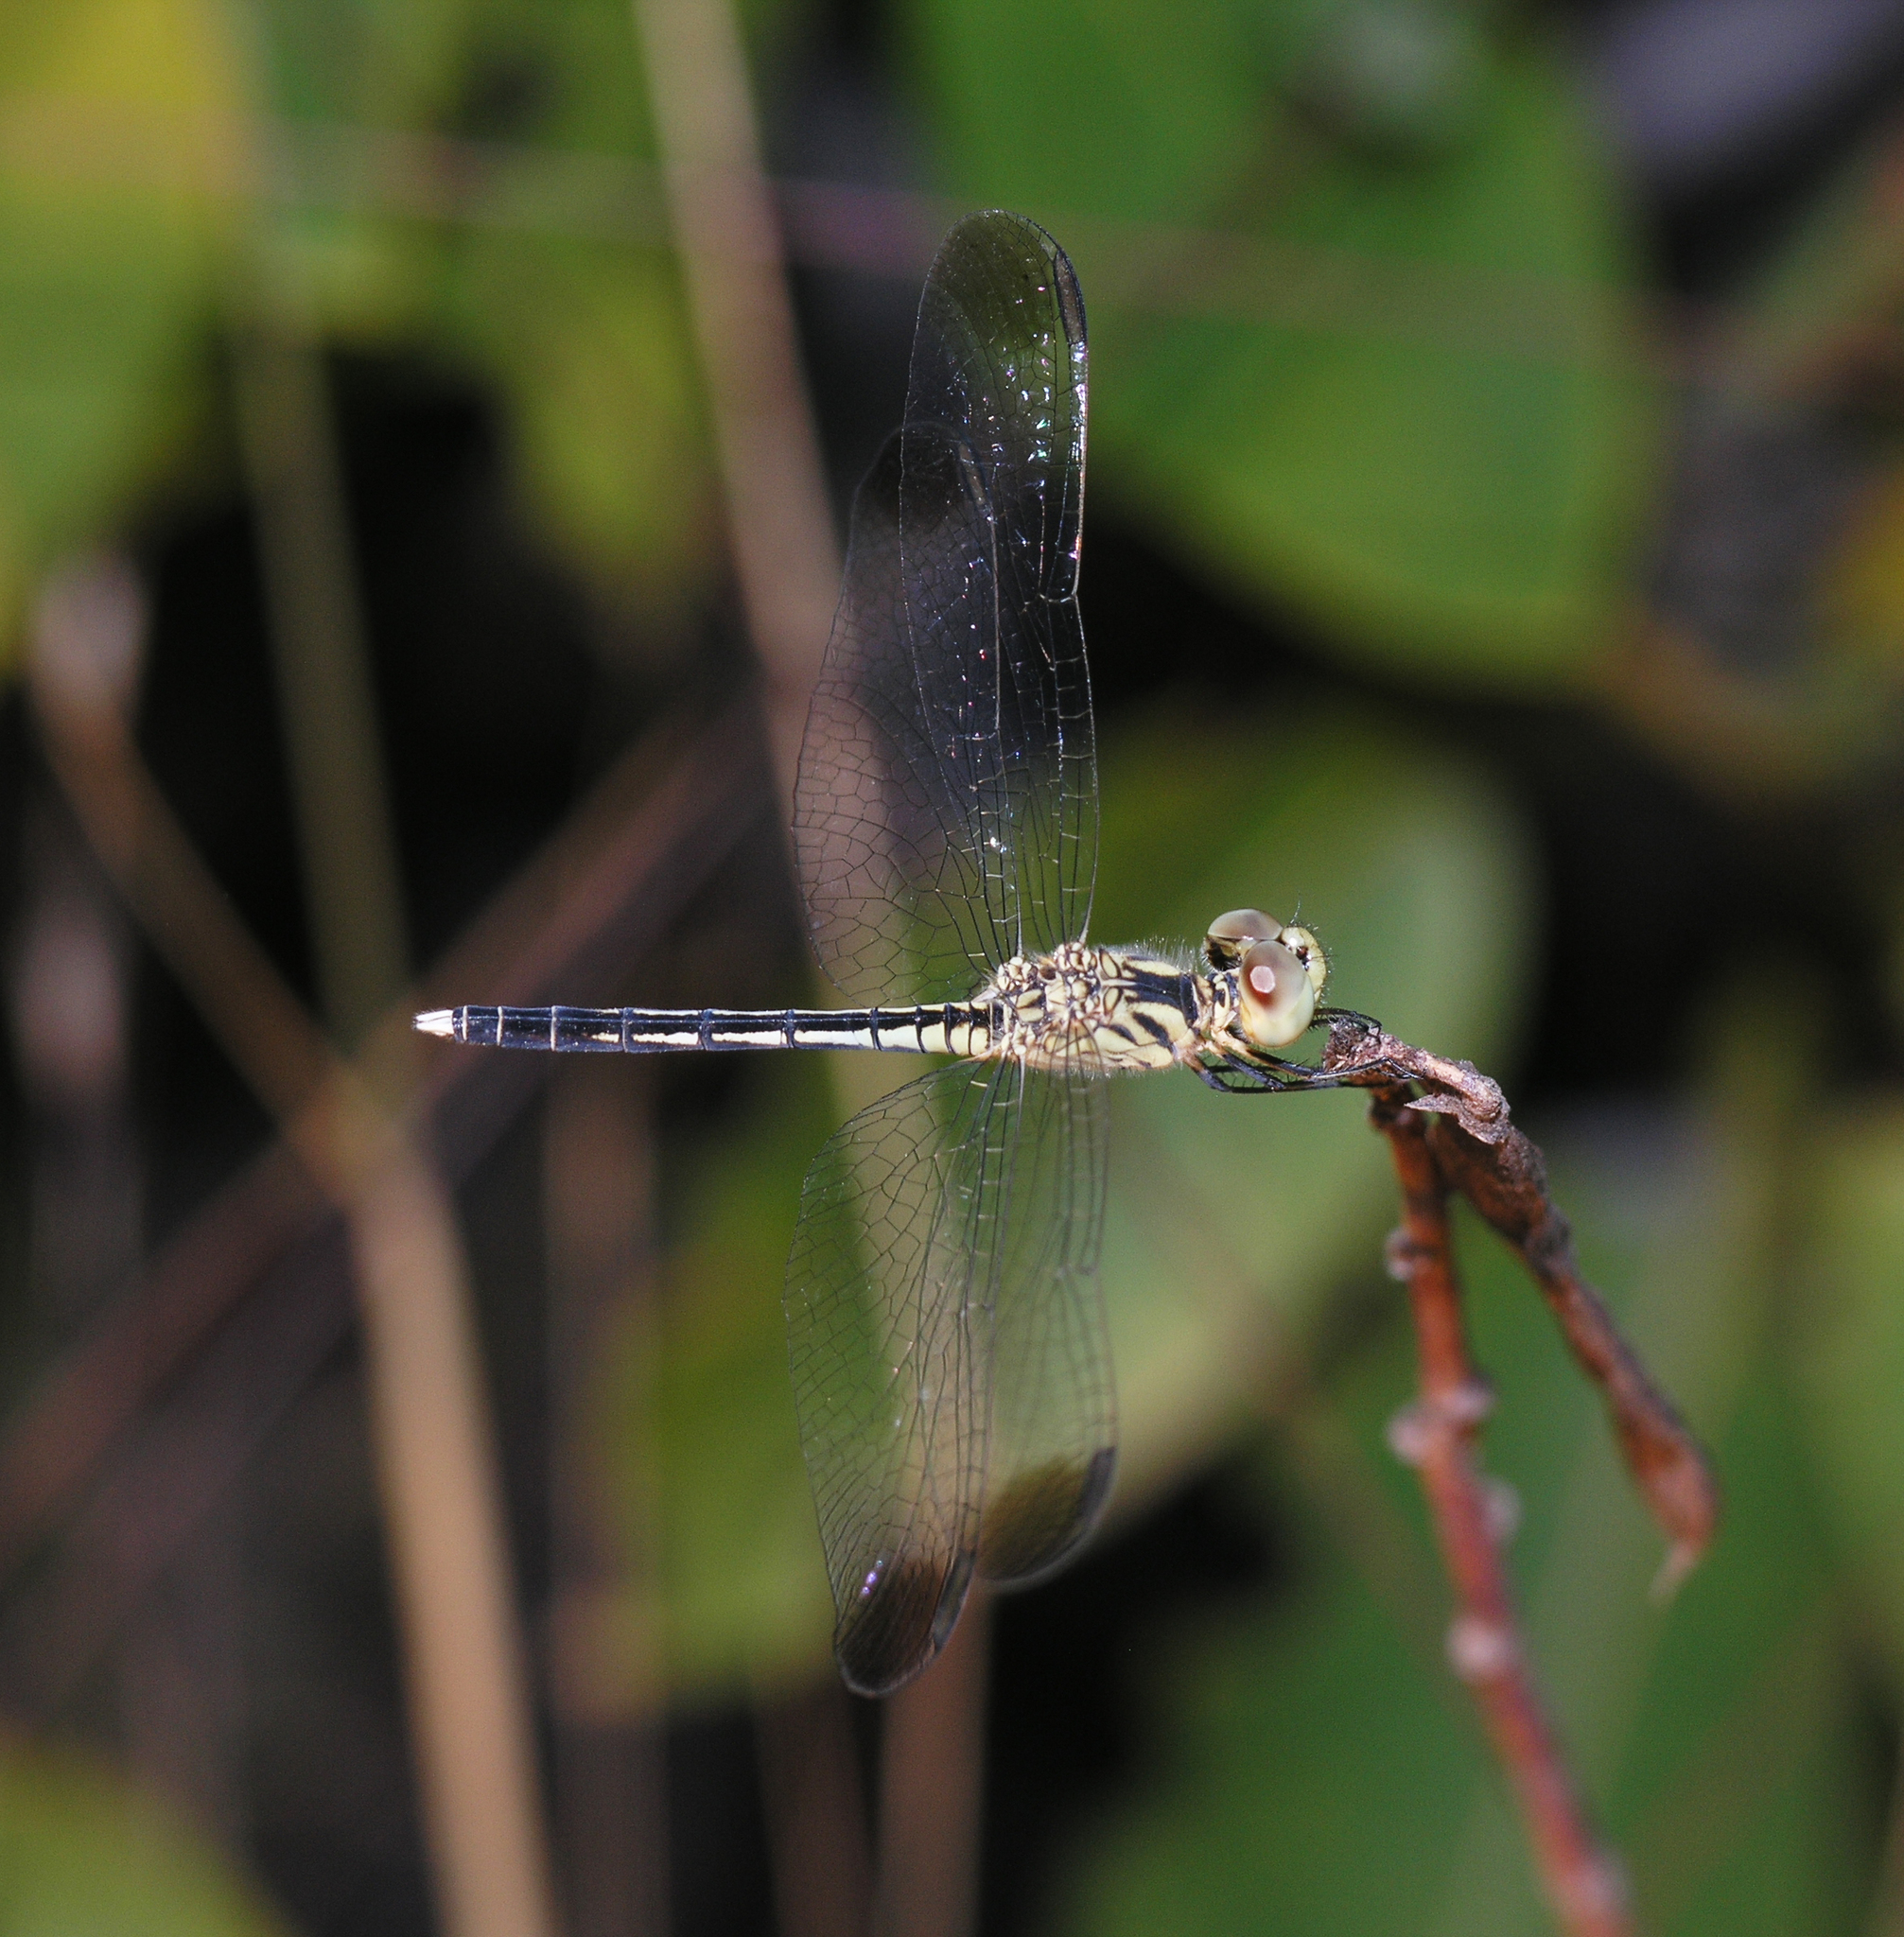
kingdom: Animalia
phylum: Arthropoda
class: Insecta
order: Odonata
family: Libellulidae
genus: Diplacodes
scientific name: Diplacodes nebulosa
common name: Black-tipped percher
